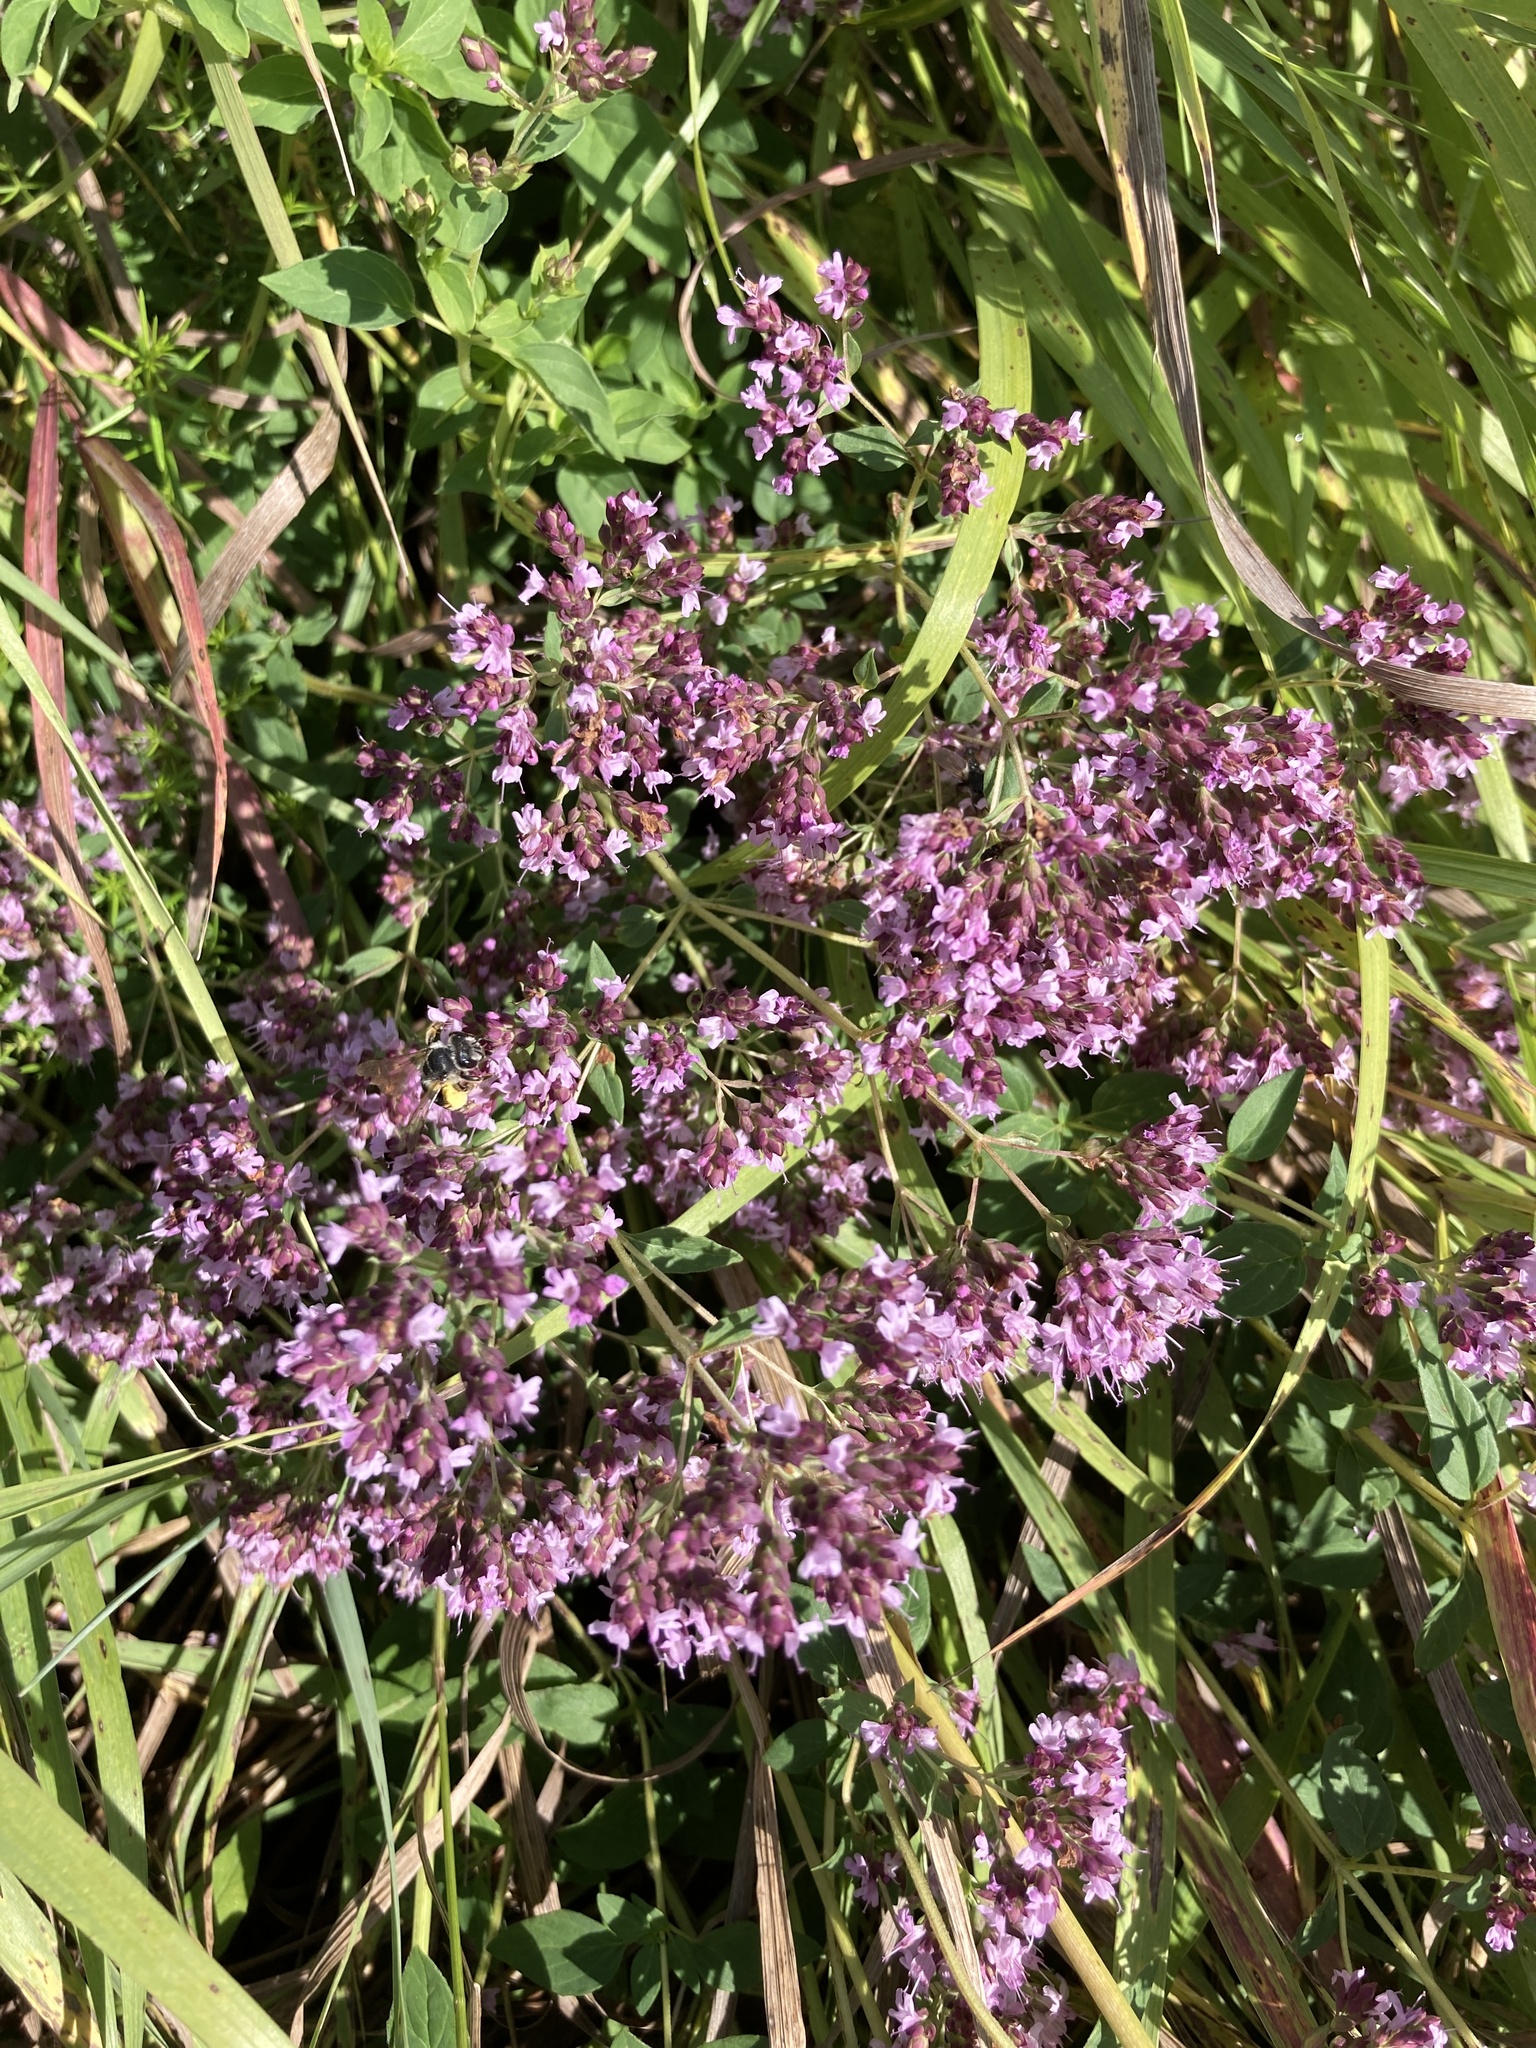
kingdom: Plantae
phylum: Tracheophyta
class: Magnoliopsida
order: Lamiales
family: Lamiaceae
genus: Origanum
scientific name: Origanum vulgare
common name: Wild marjoram
